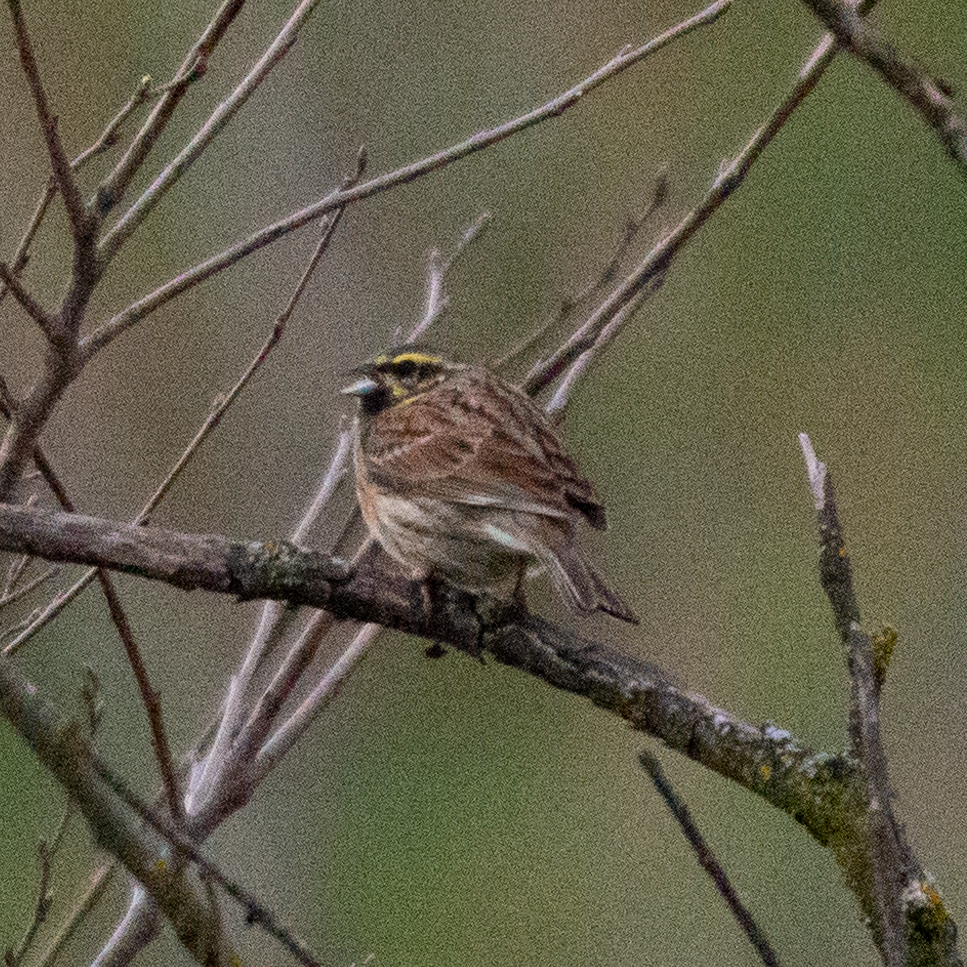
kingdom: Animalia
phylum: Chordata
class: Aves
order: Passeriformes
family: Emberizidae
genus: Emberiza
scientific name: Emberiza cirlus
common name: Cirl bunting
